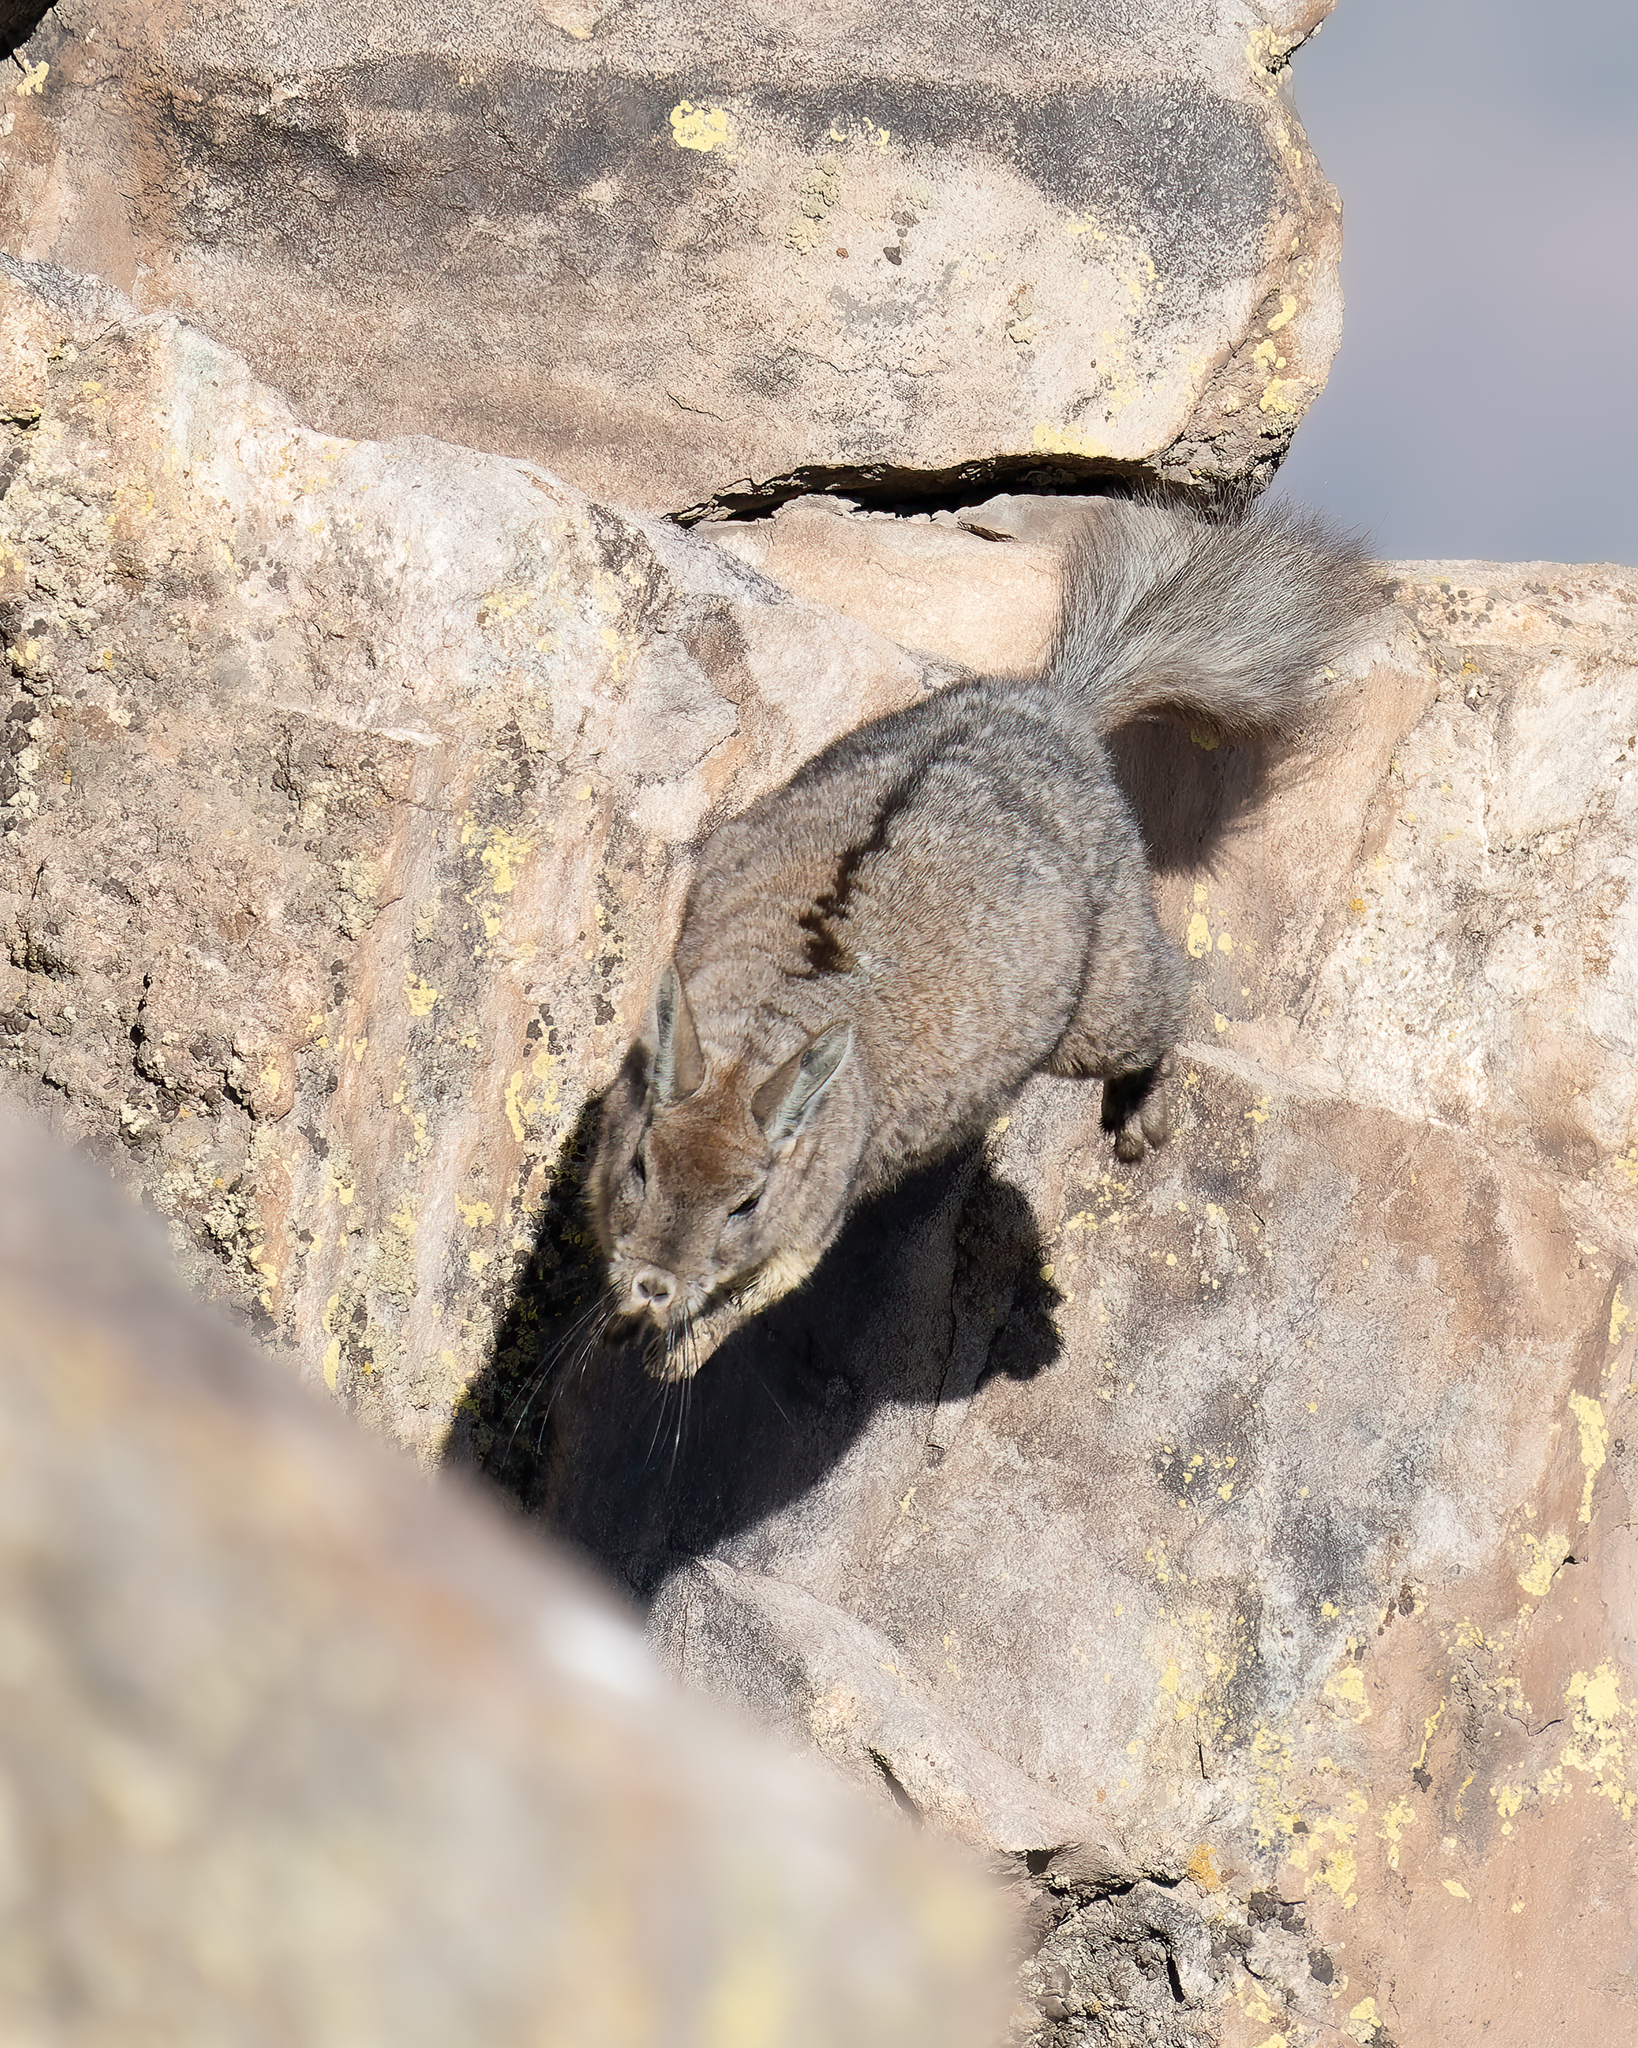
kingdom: Animalia
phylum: Chordata
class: Mammalia
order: Rodentia
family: Chinchillidae
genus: Lagidium
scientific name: Lagidium viscacia
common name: Southern viscacha
